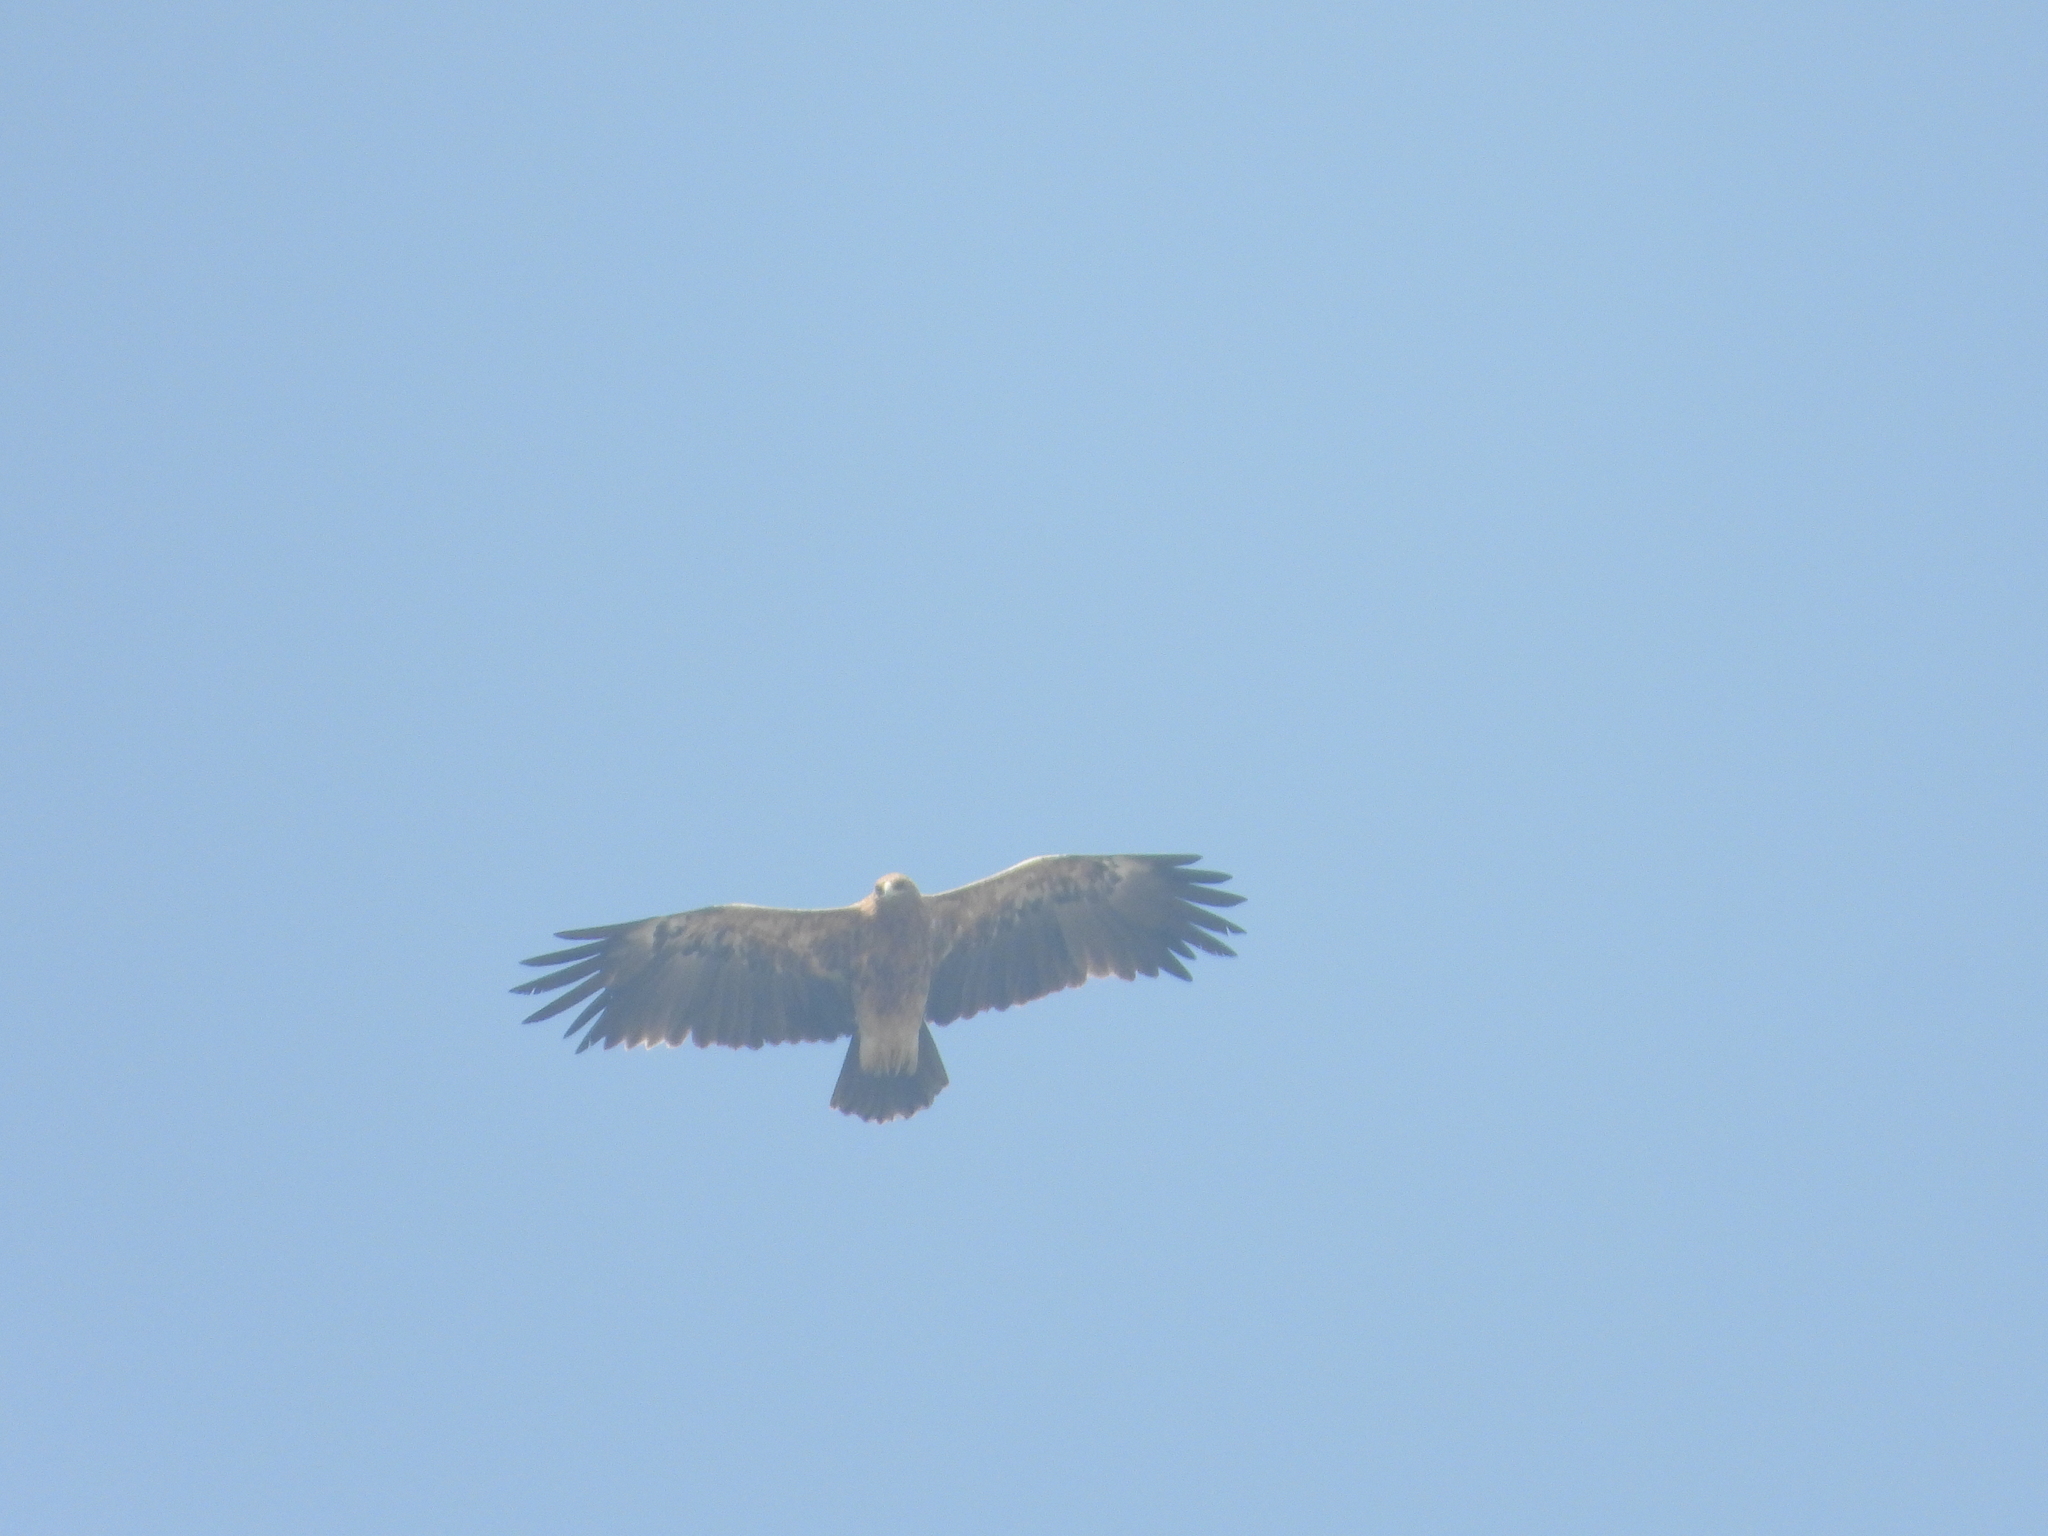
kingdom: Animalia
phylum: Chordata
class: Aves
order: Accipitriformes
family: Accipitridae
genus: Aquila
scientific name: Aquila clanga
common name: Greater spotted eagle
